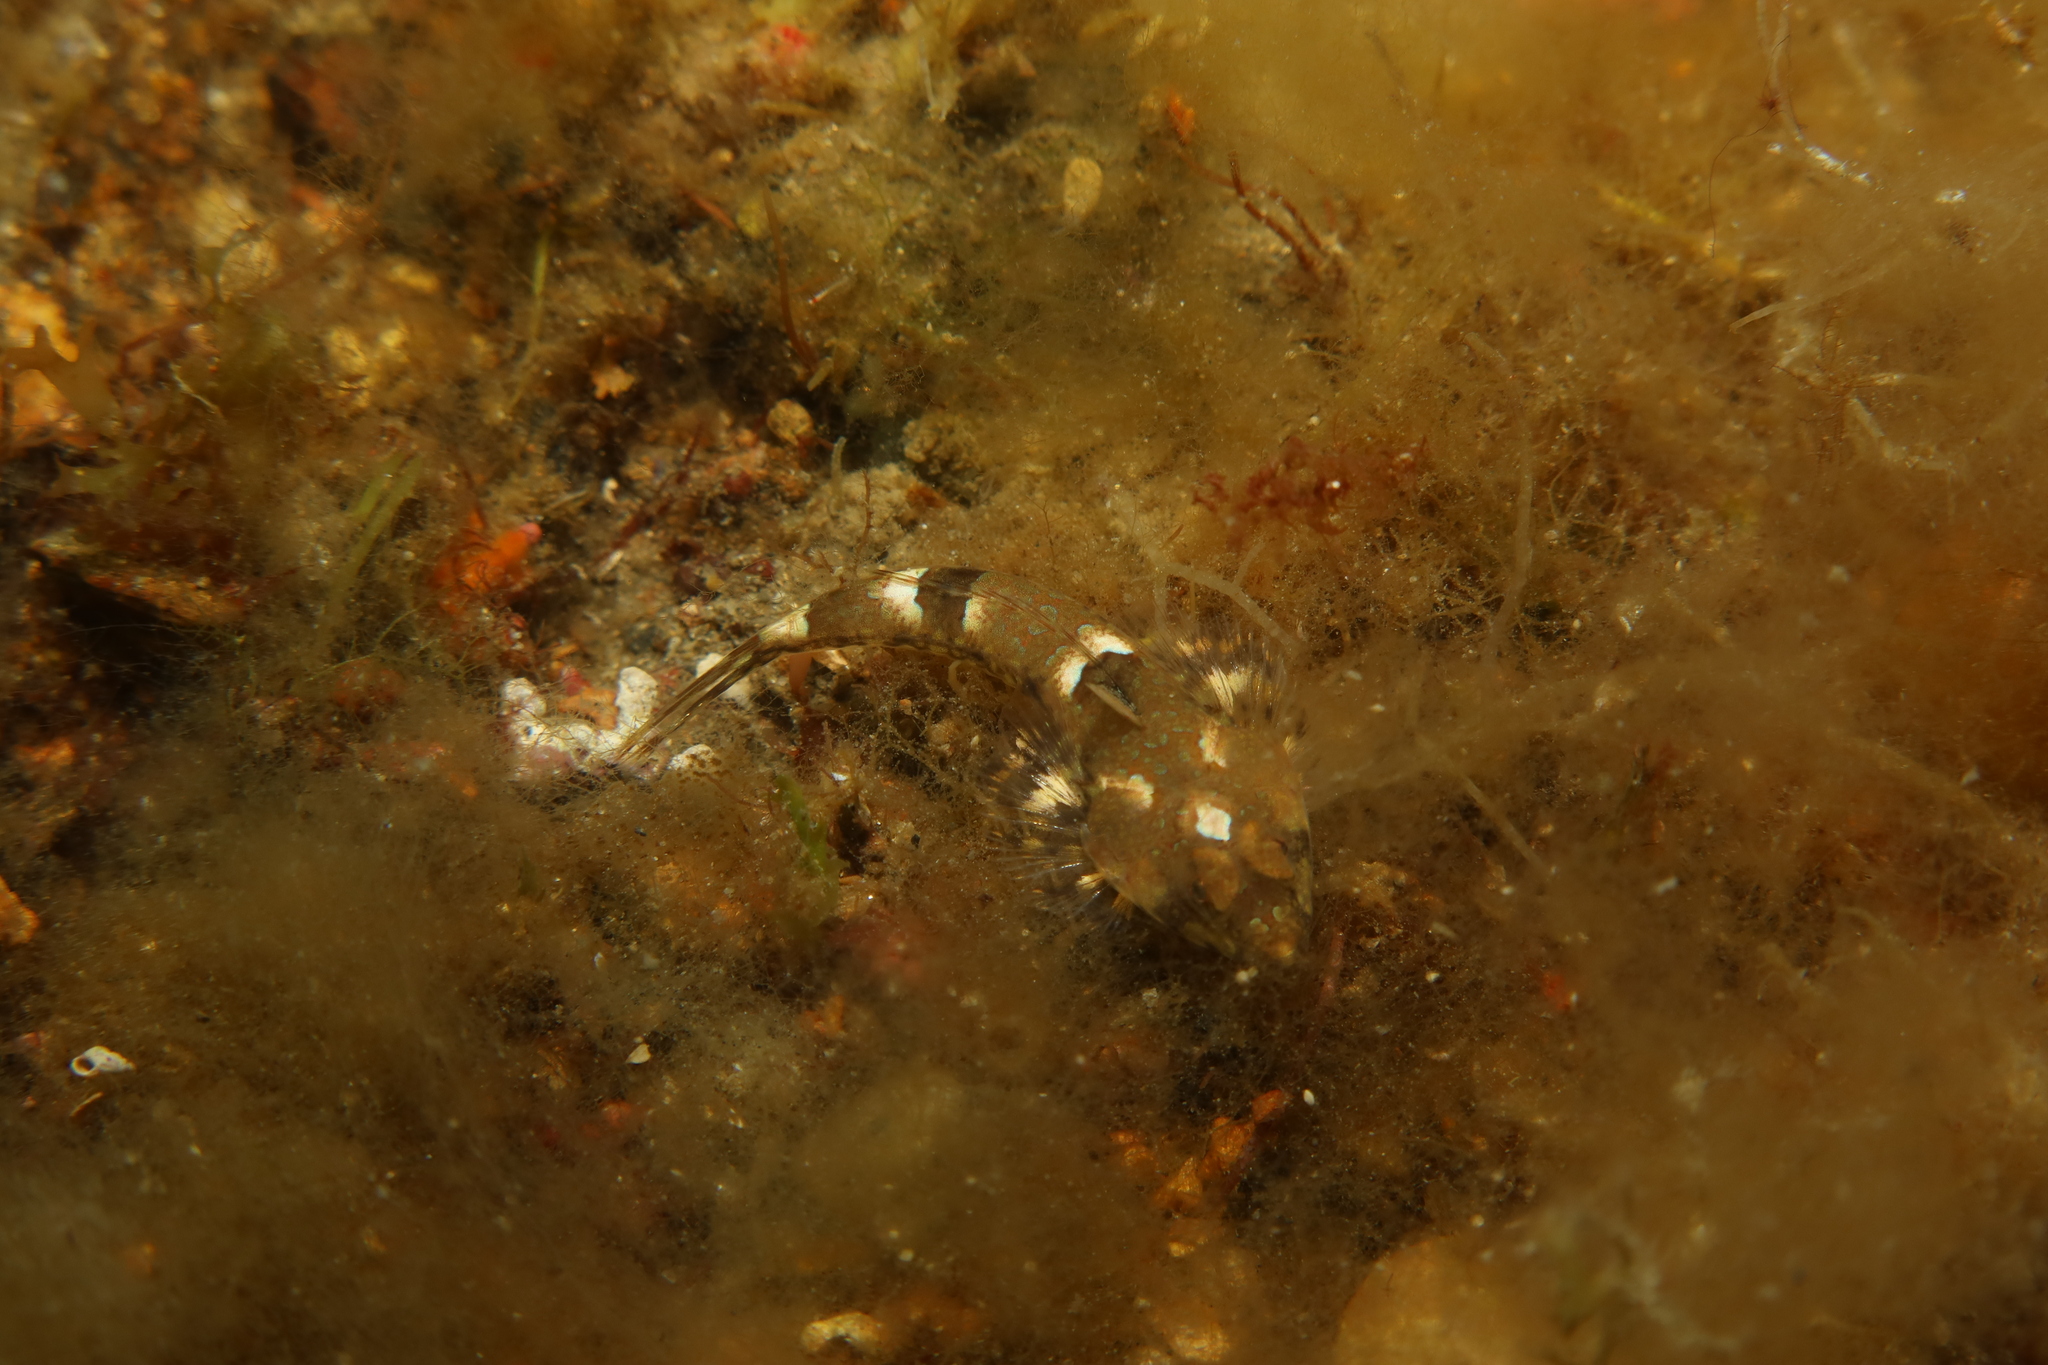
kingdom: Animalia
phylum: Chordata
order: Perciformes
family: Callionymidae
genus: Callionymus
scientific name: Callionymus lyra
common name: Dragonet
